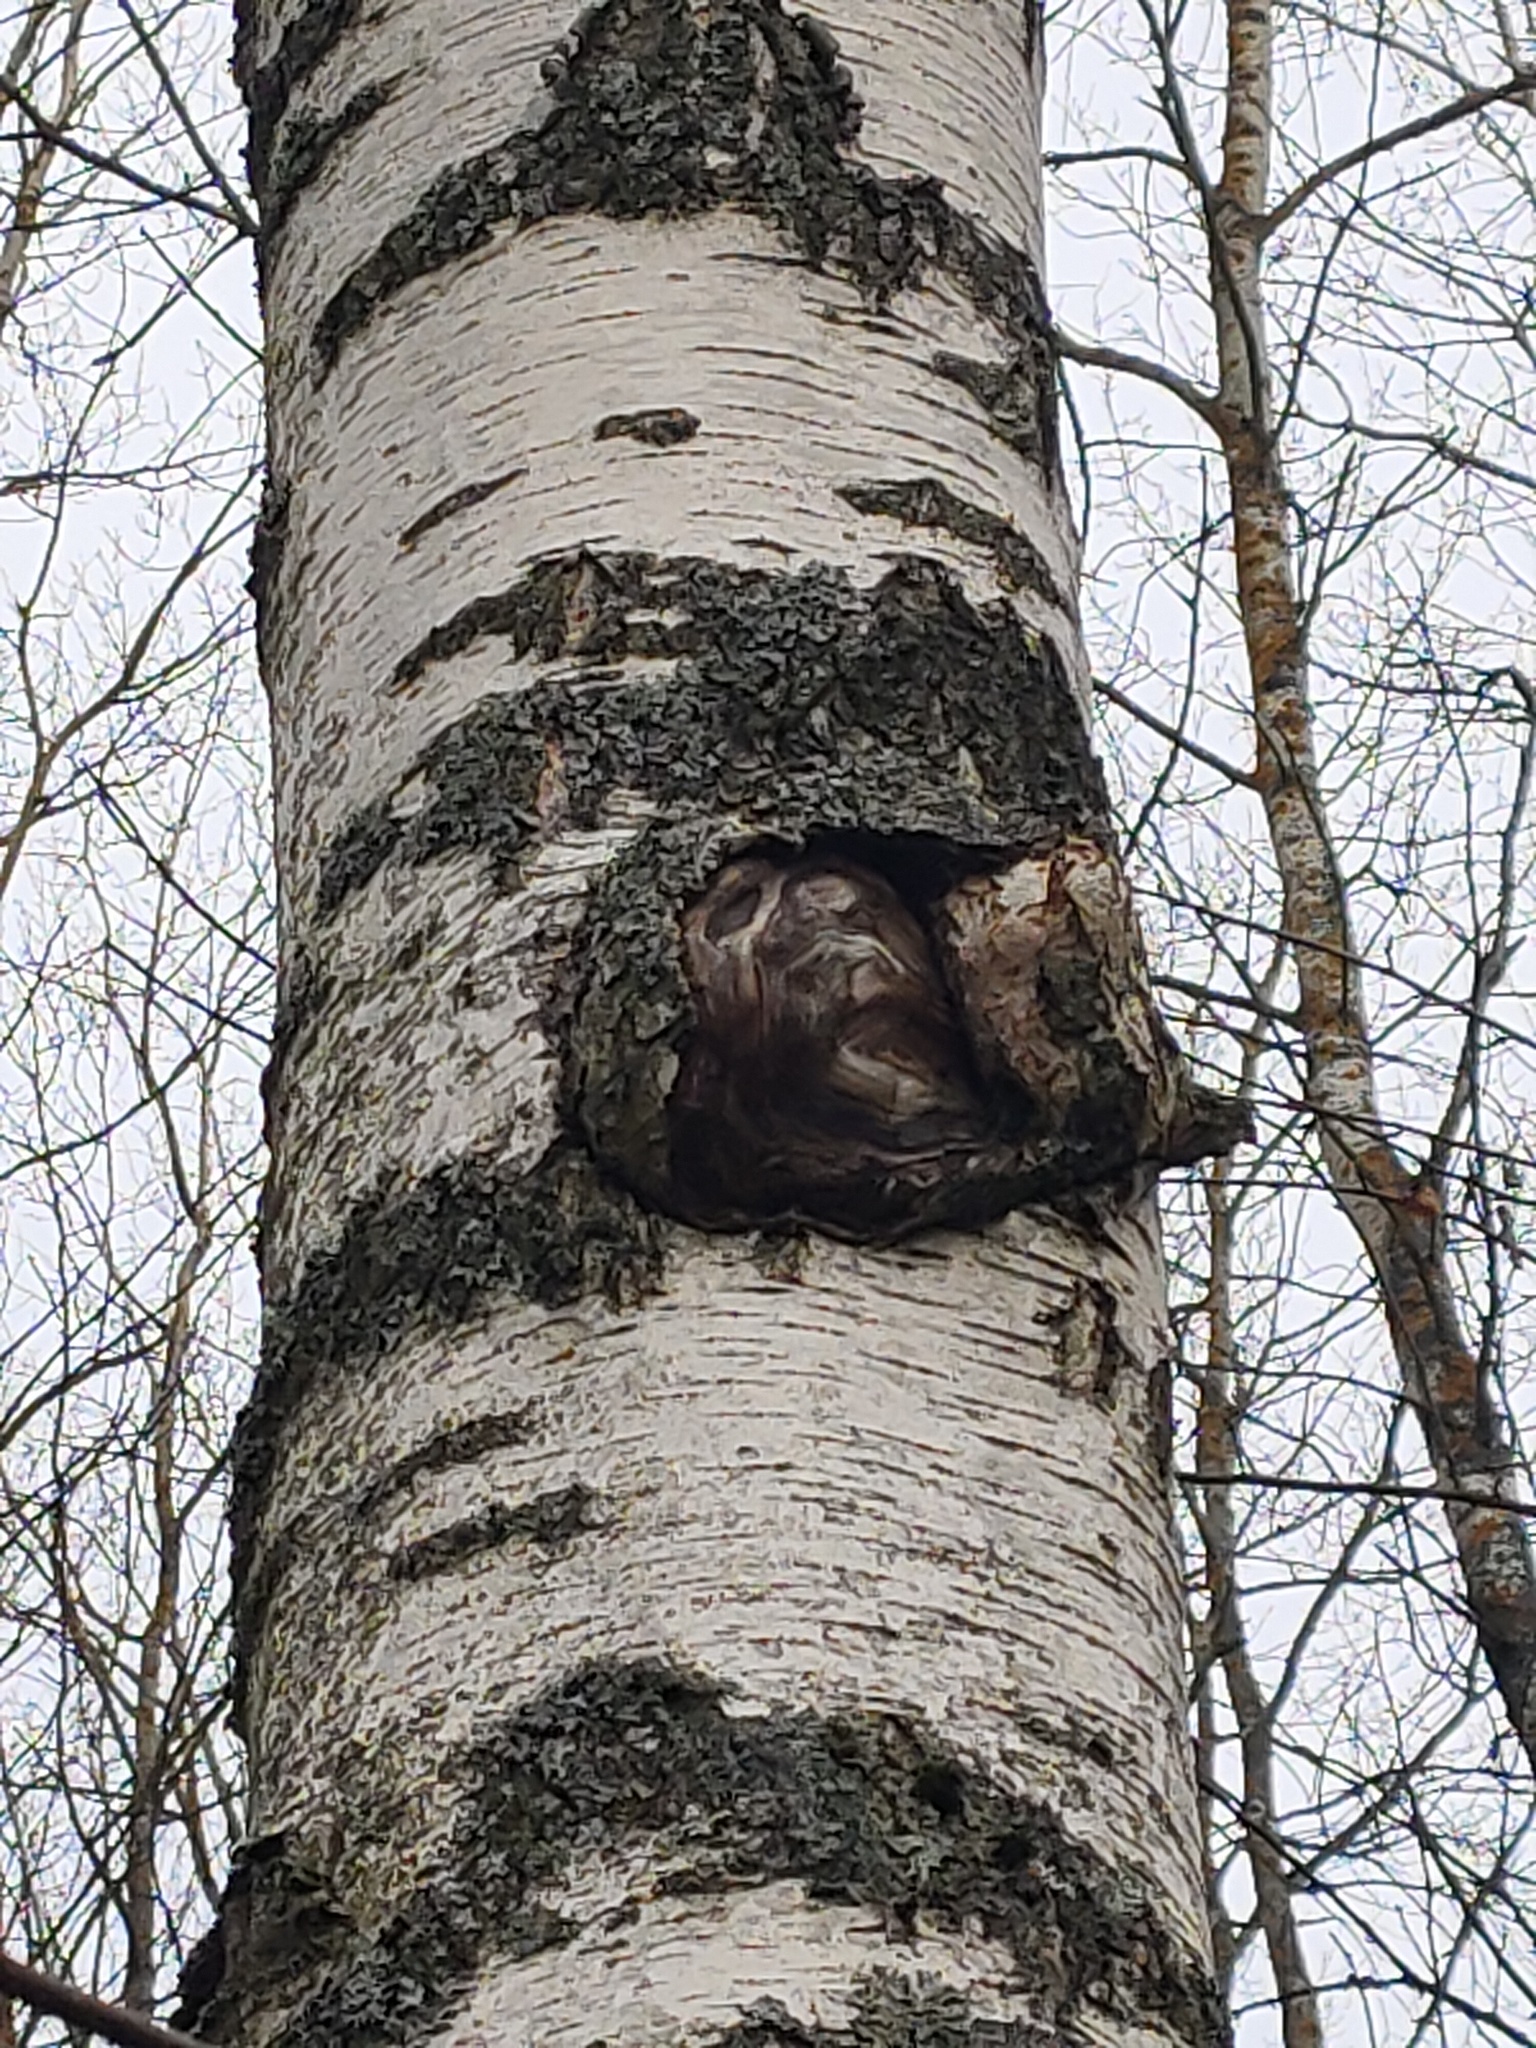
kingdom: Bacteria
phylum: Proteobacteria
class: Alphaproteobacteria
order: Rhizobiales
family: Rhizobiaceae
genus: Rhizobium
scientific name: Rhizobium Agrobacterium radiobacter
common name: Bacterial crown gall
